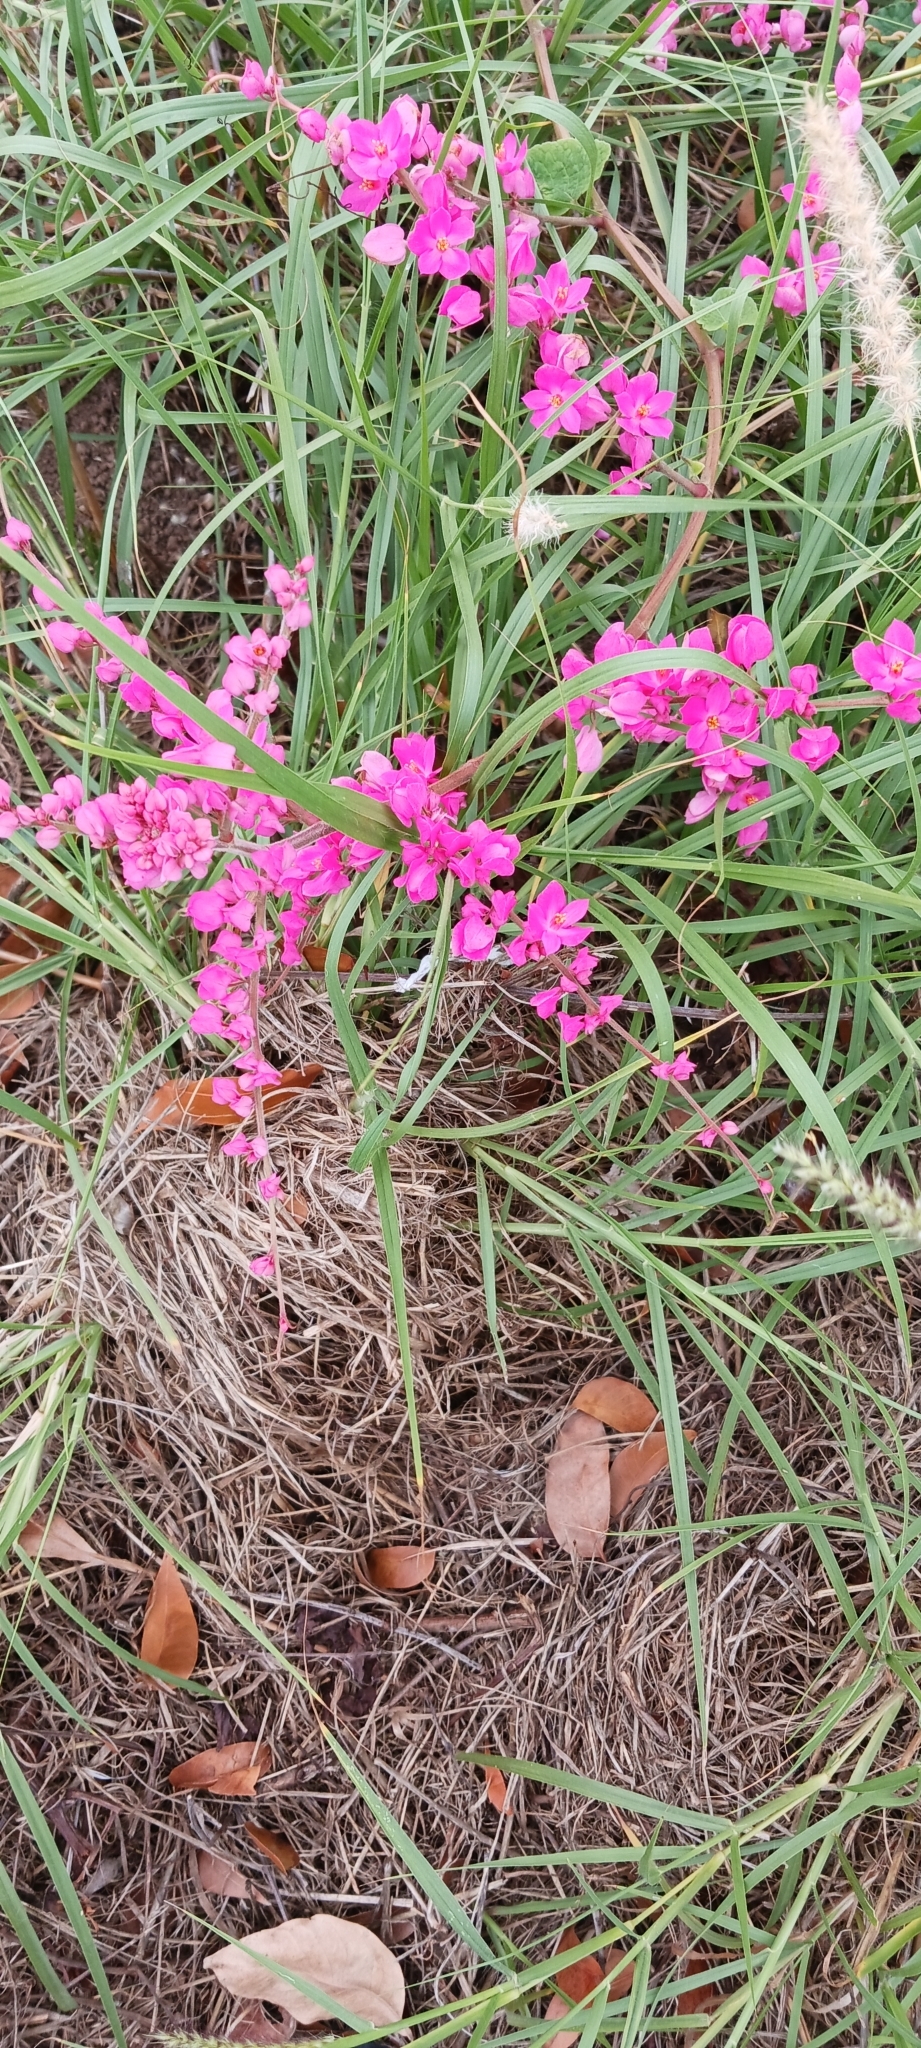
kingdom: Plantae
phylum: Tracheophyta
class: Magnoliopsida
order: Caryophyllales
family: Polygonaceae
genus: Antigonon
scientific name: Antigonon leptopus
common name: Coral vine
